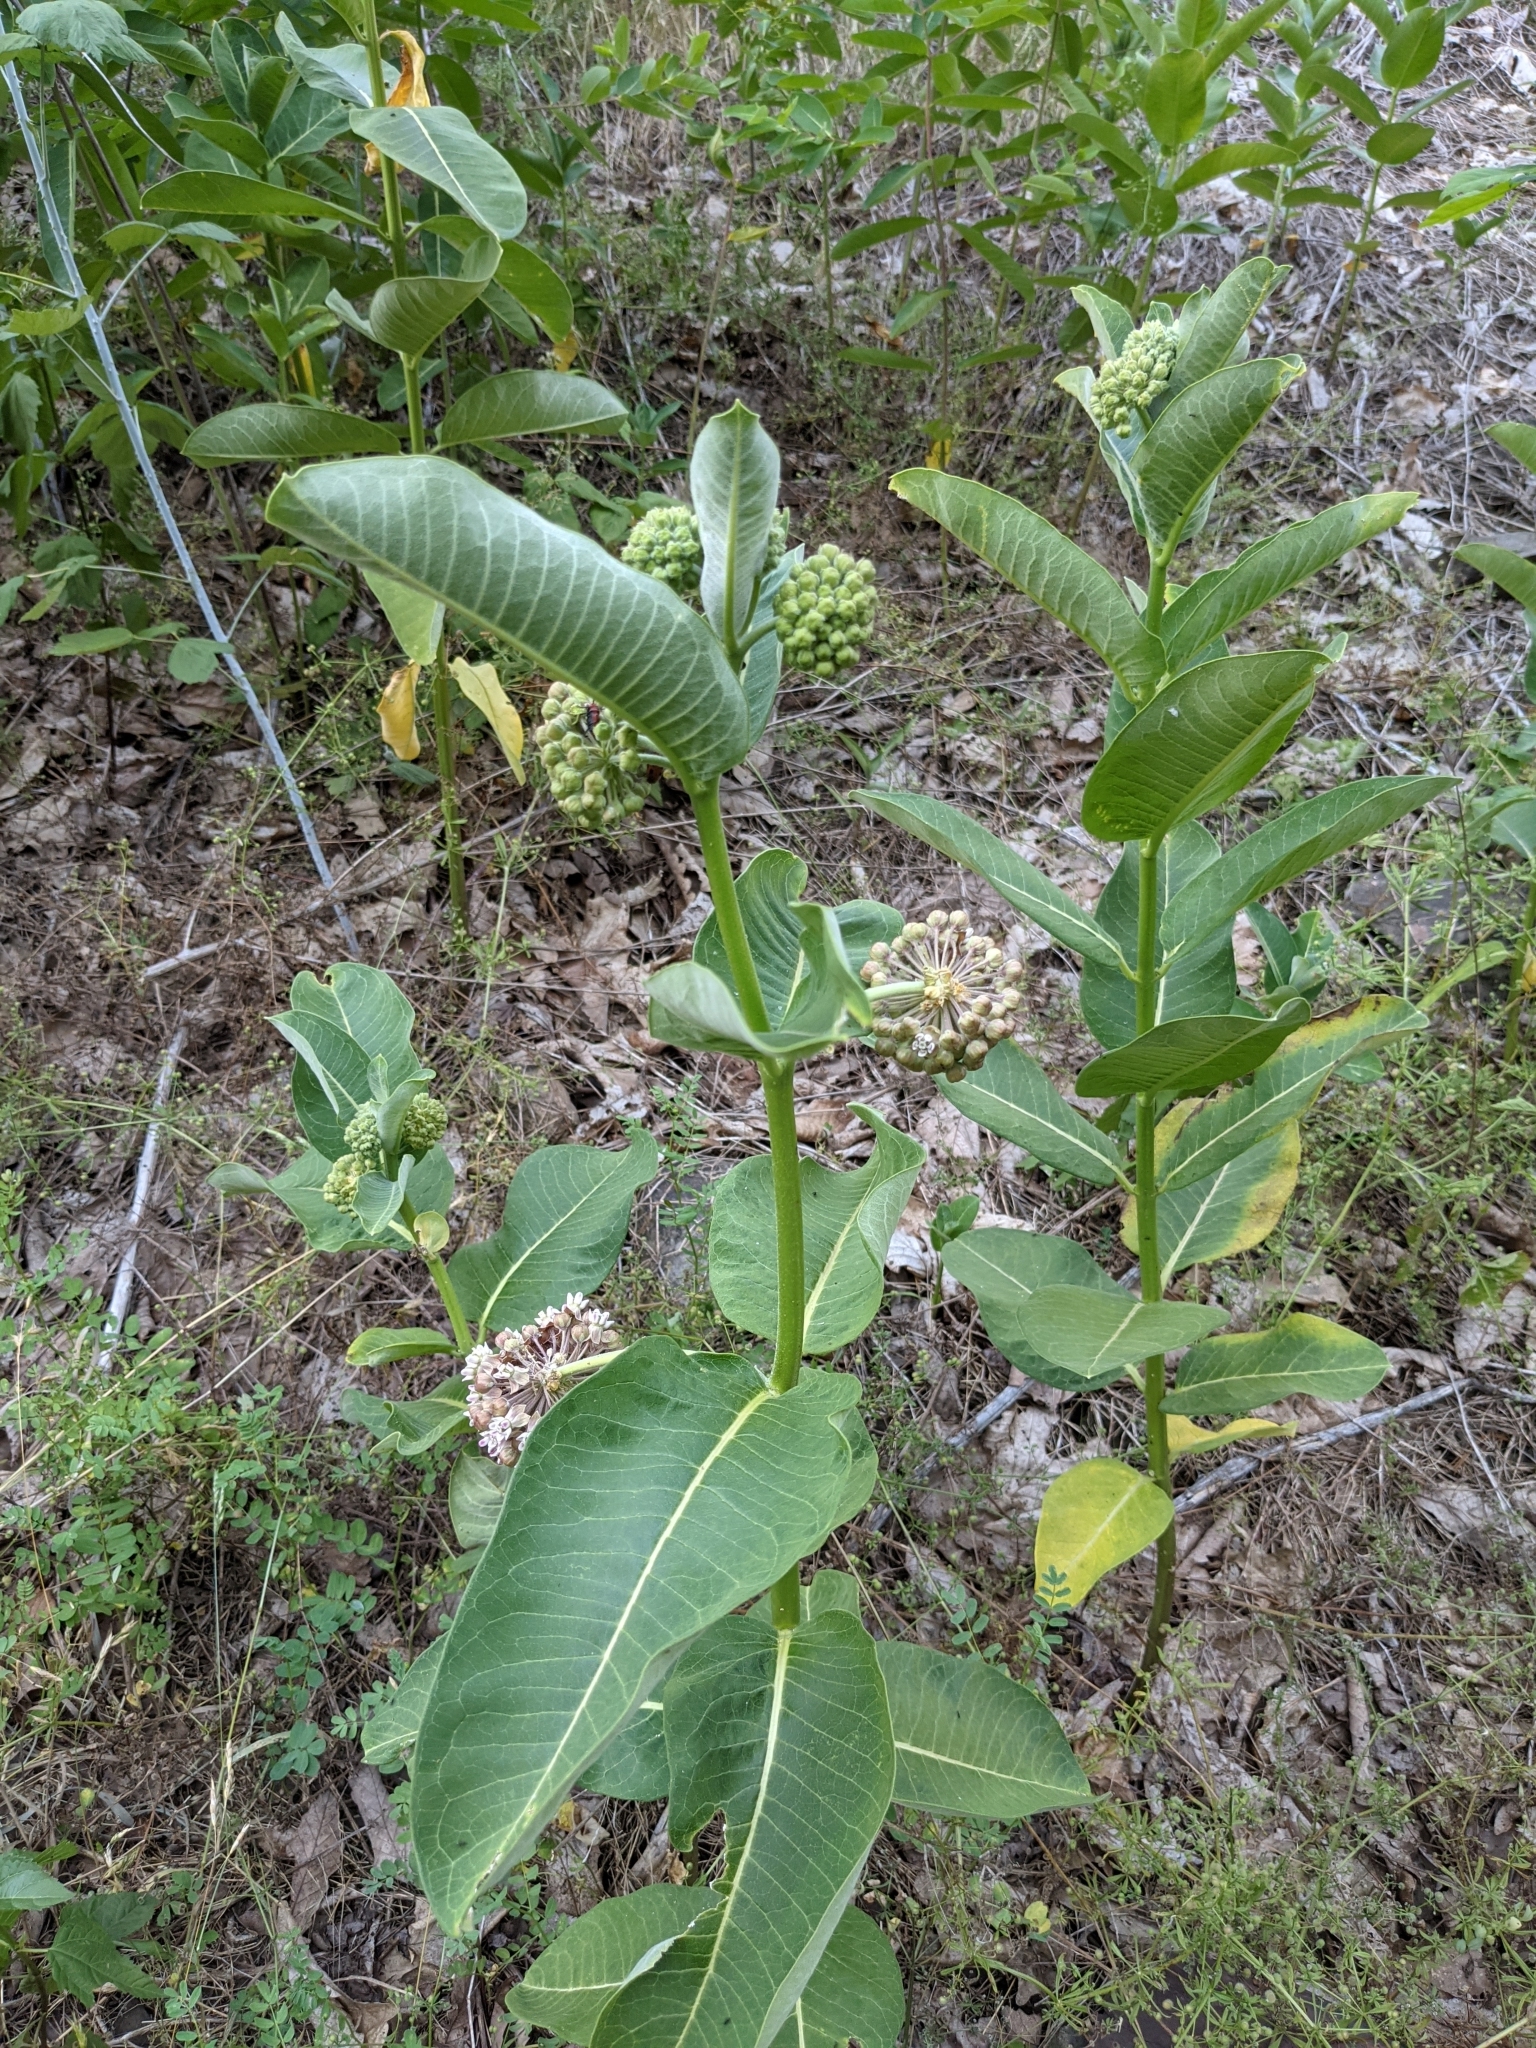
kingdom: Plantae
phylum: Tracheophyta
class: Magnoliopsida
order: Gentianales
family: Apocynaceae
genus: Asclepias
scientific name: Asclepias syriaca
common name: Common milkweed
